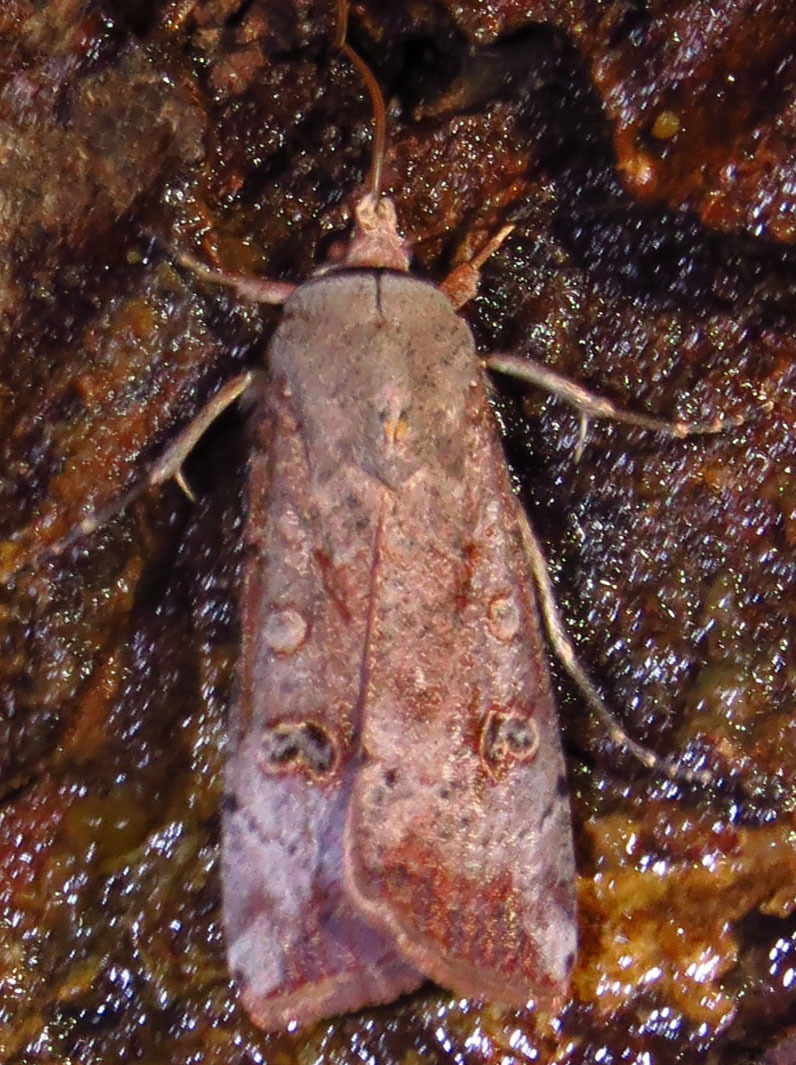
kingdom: Animalia
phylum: Arthropoda
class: Insecta
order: Lepidoptera
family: Noctuidae
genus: Anicla
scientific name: Anicla infecta
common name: Green cutworm
